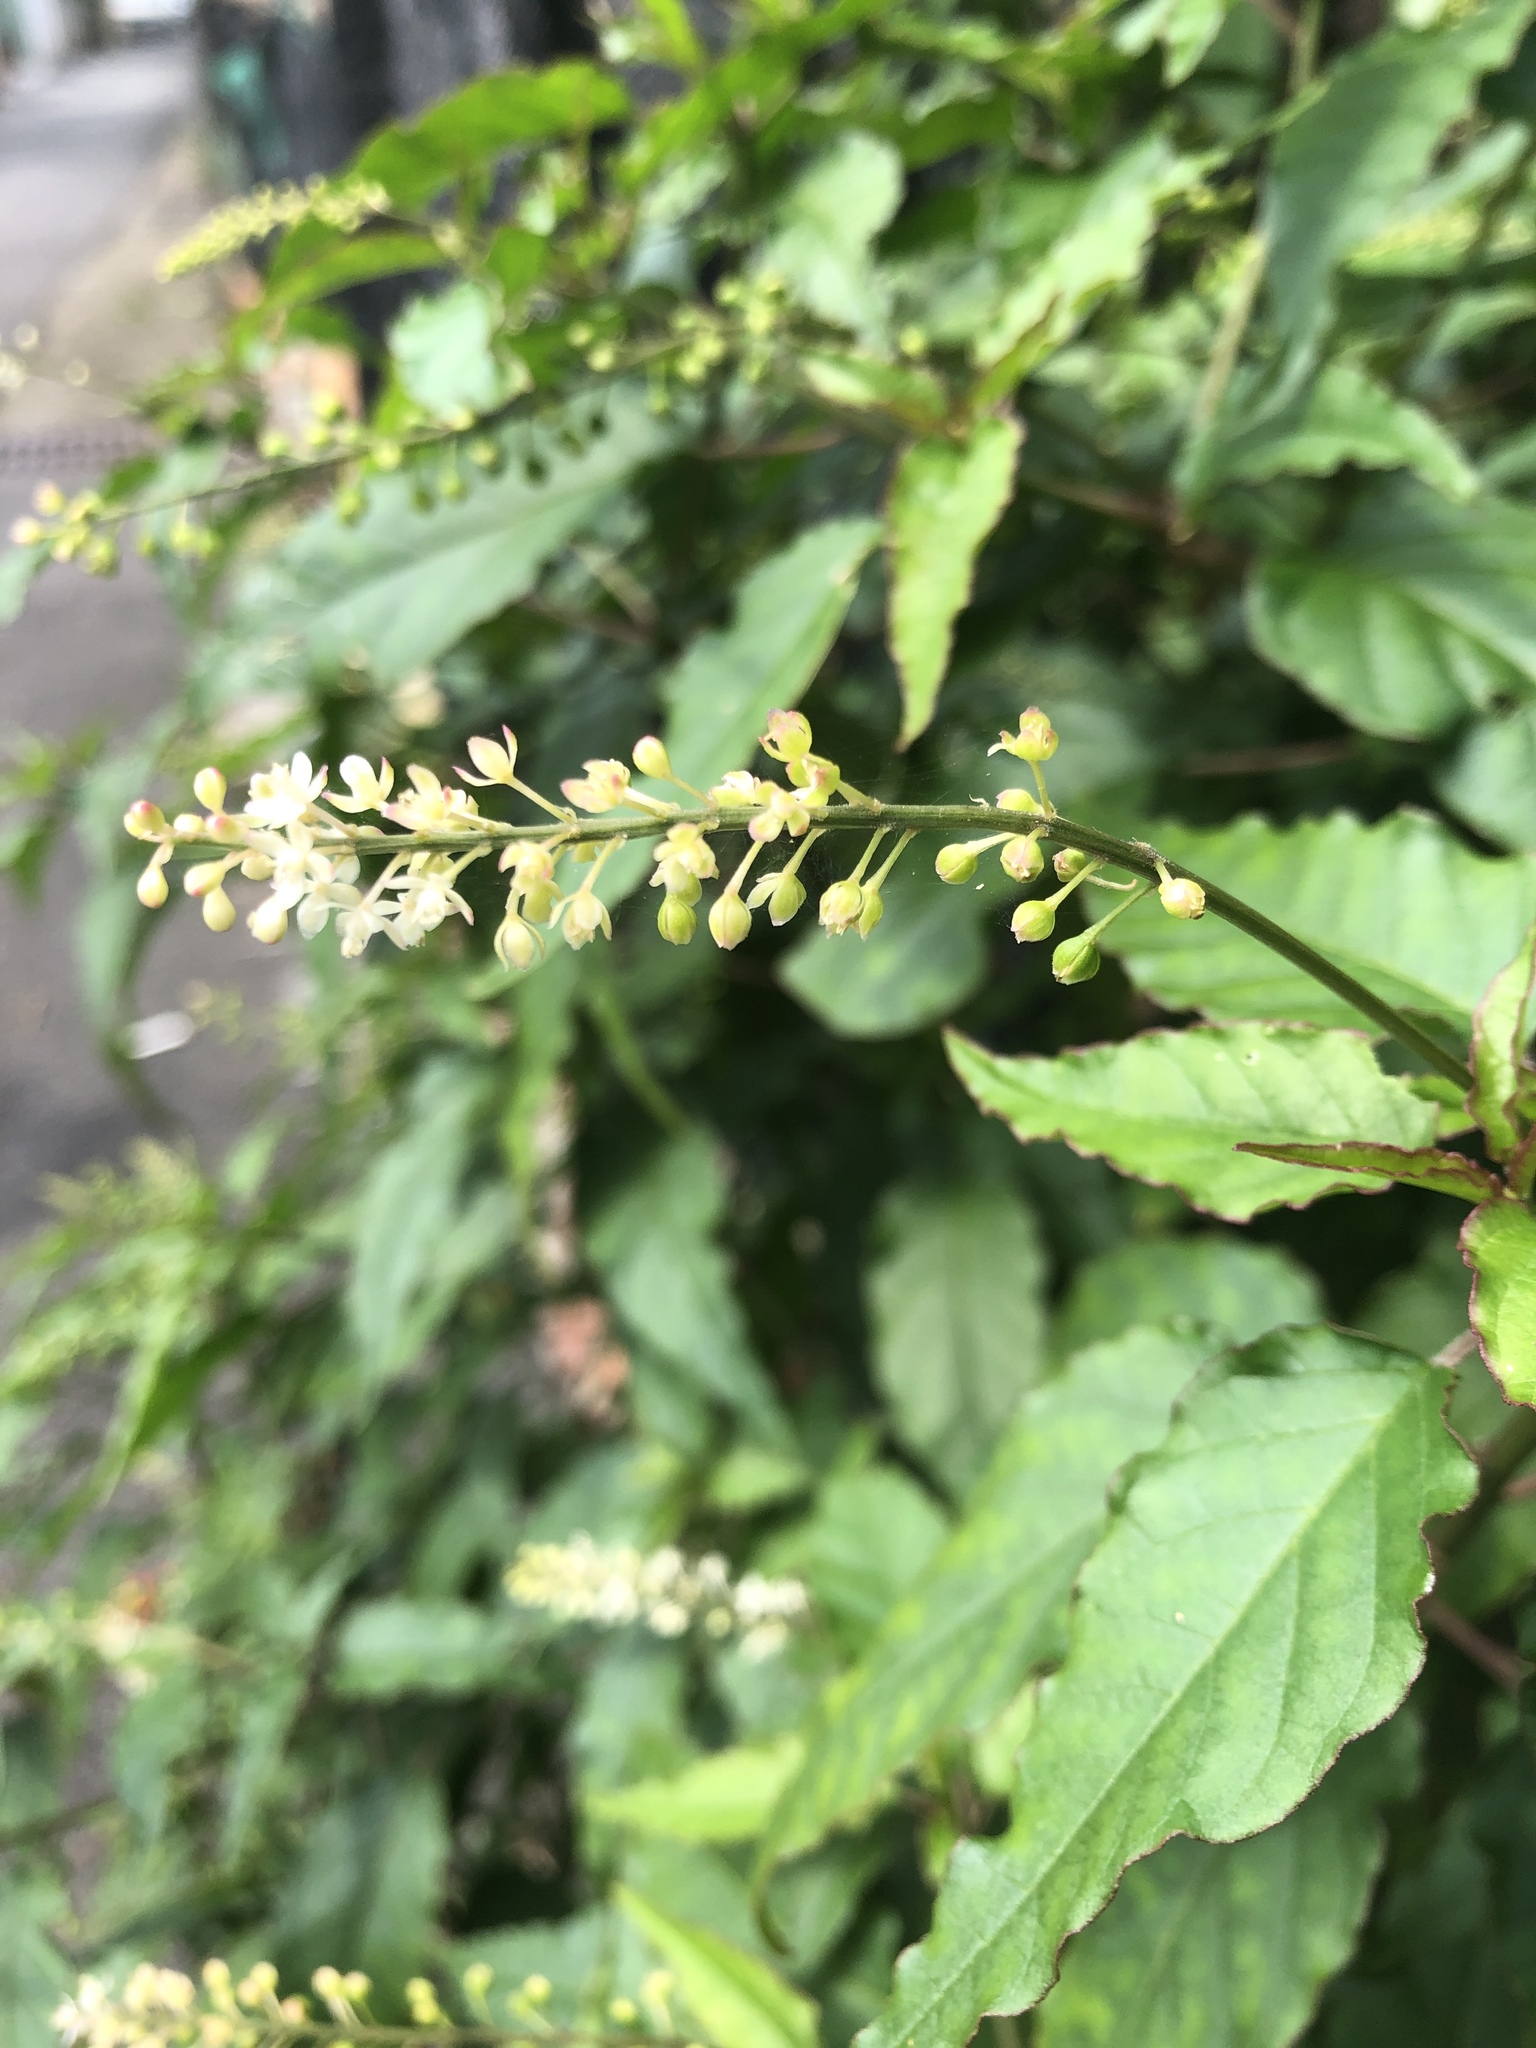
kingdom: Plantae
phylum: Tracheophyta
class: Magnoliopsida
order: Caryophyllales
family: Phytolaccaceae
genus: Rivina
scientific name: Rivina humilis
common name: Rougeplant
